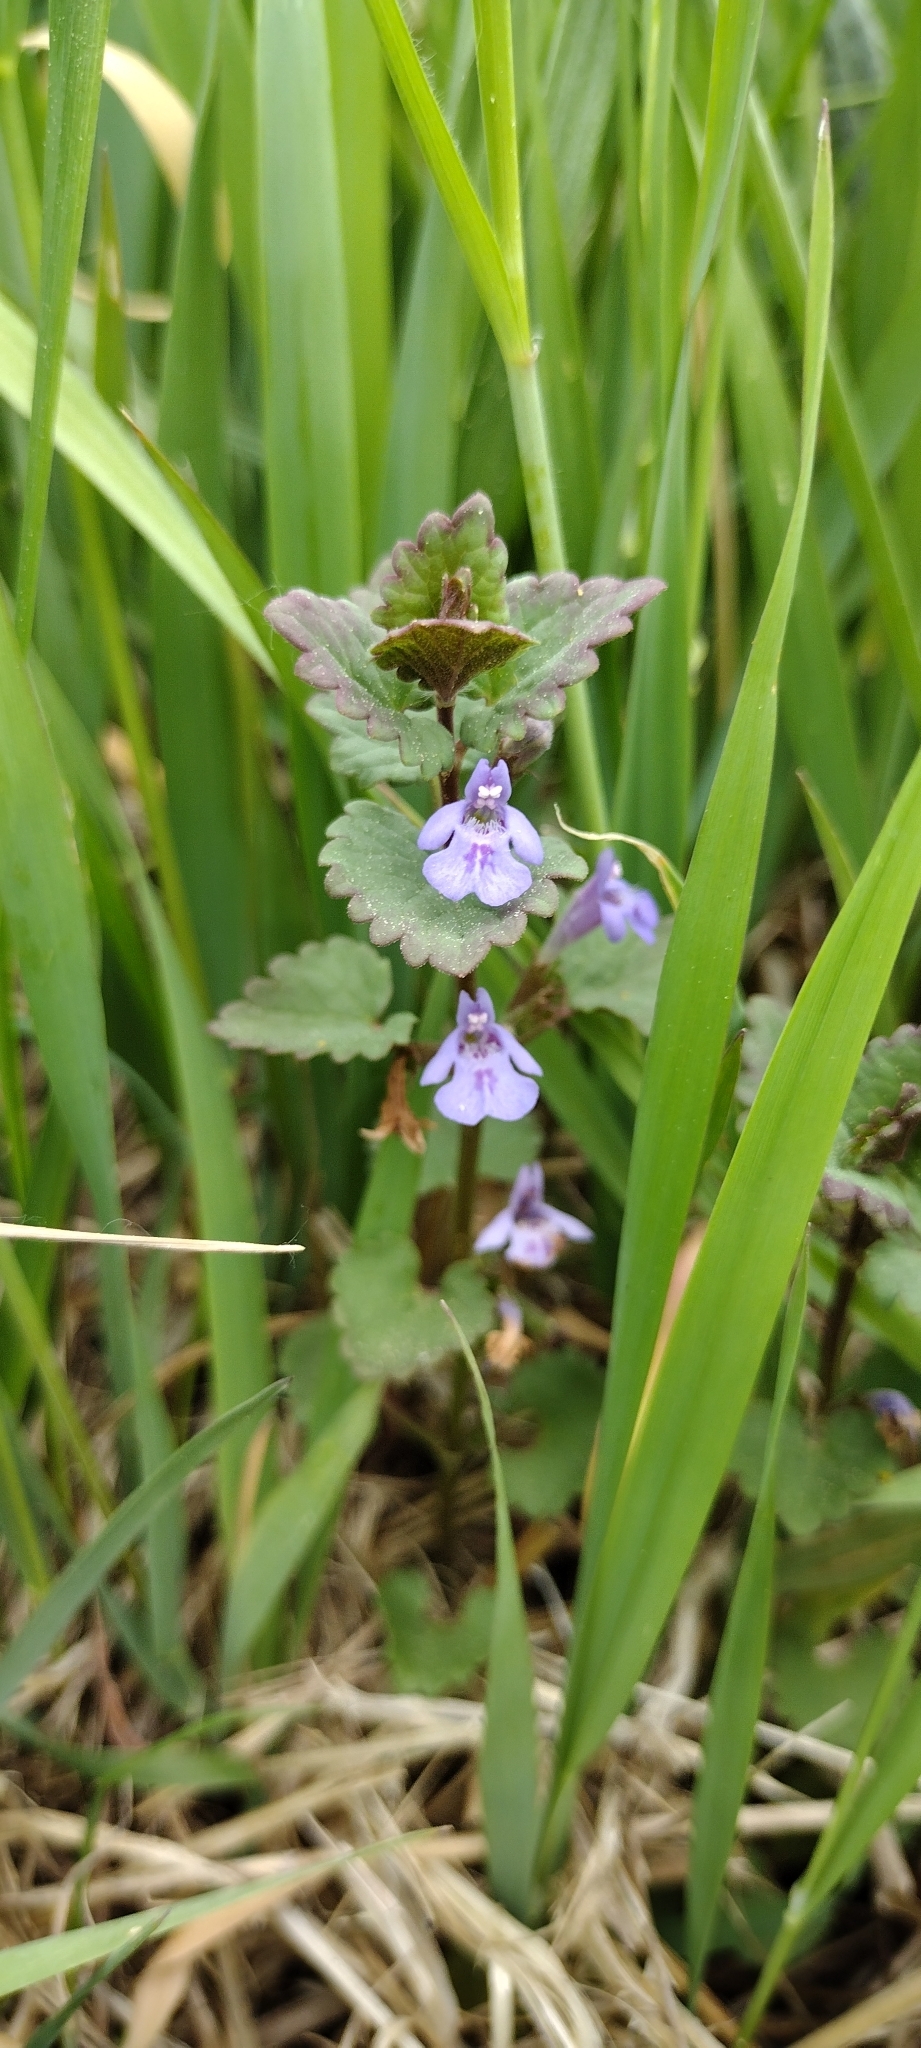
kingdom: Plantae
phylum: Tracheophyta
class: Magnoliopsida
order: Lamiales
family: Lamiaceae
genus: Glechoma
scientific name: Glechoma hederacea
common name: Ground ivy
